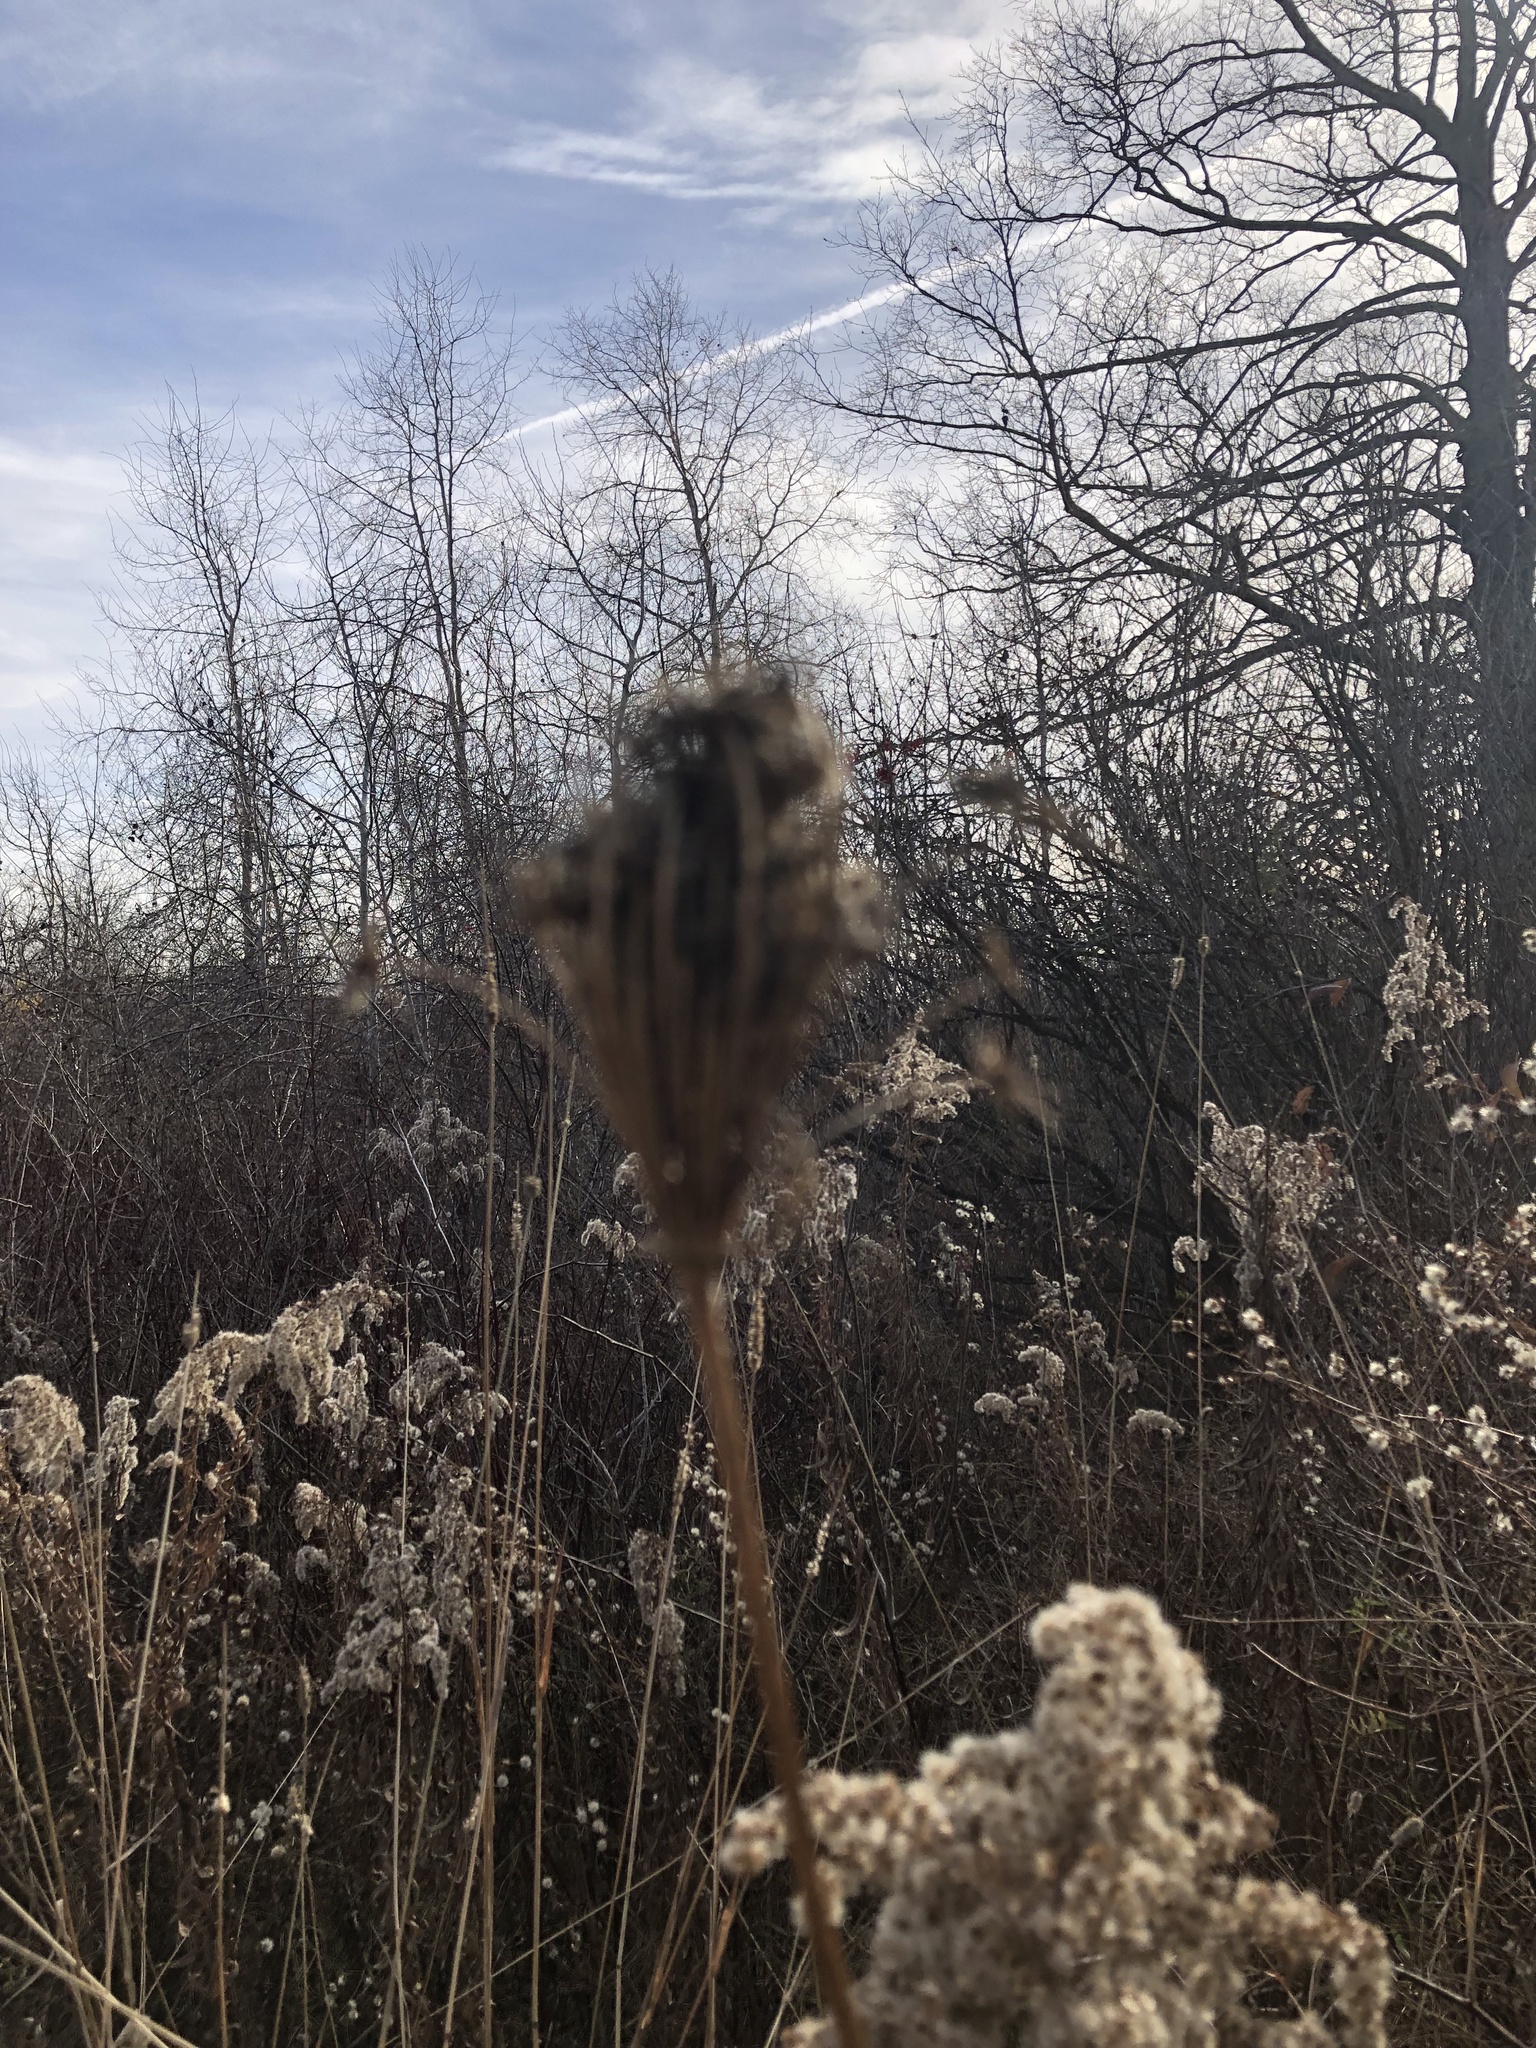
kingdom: Plantae
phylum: Tracheophyta
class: Magnoliopsida
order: Apiales
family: Apiaceae
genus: Daucus
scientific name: Daucus carota
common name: Wild carrot
